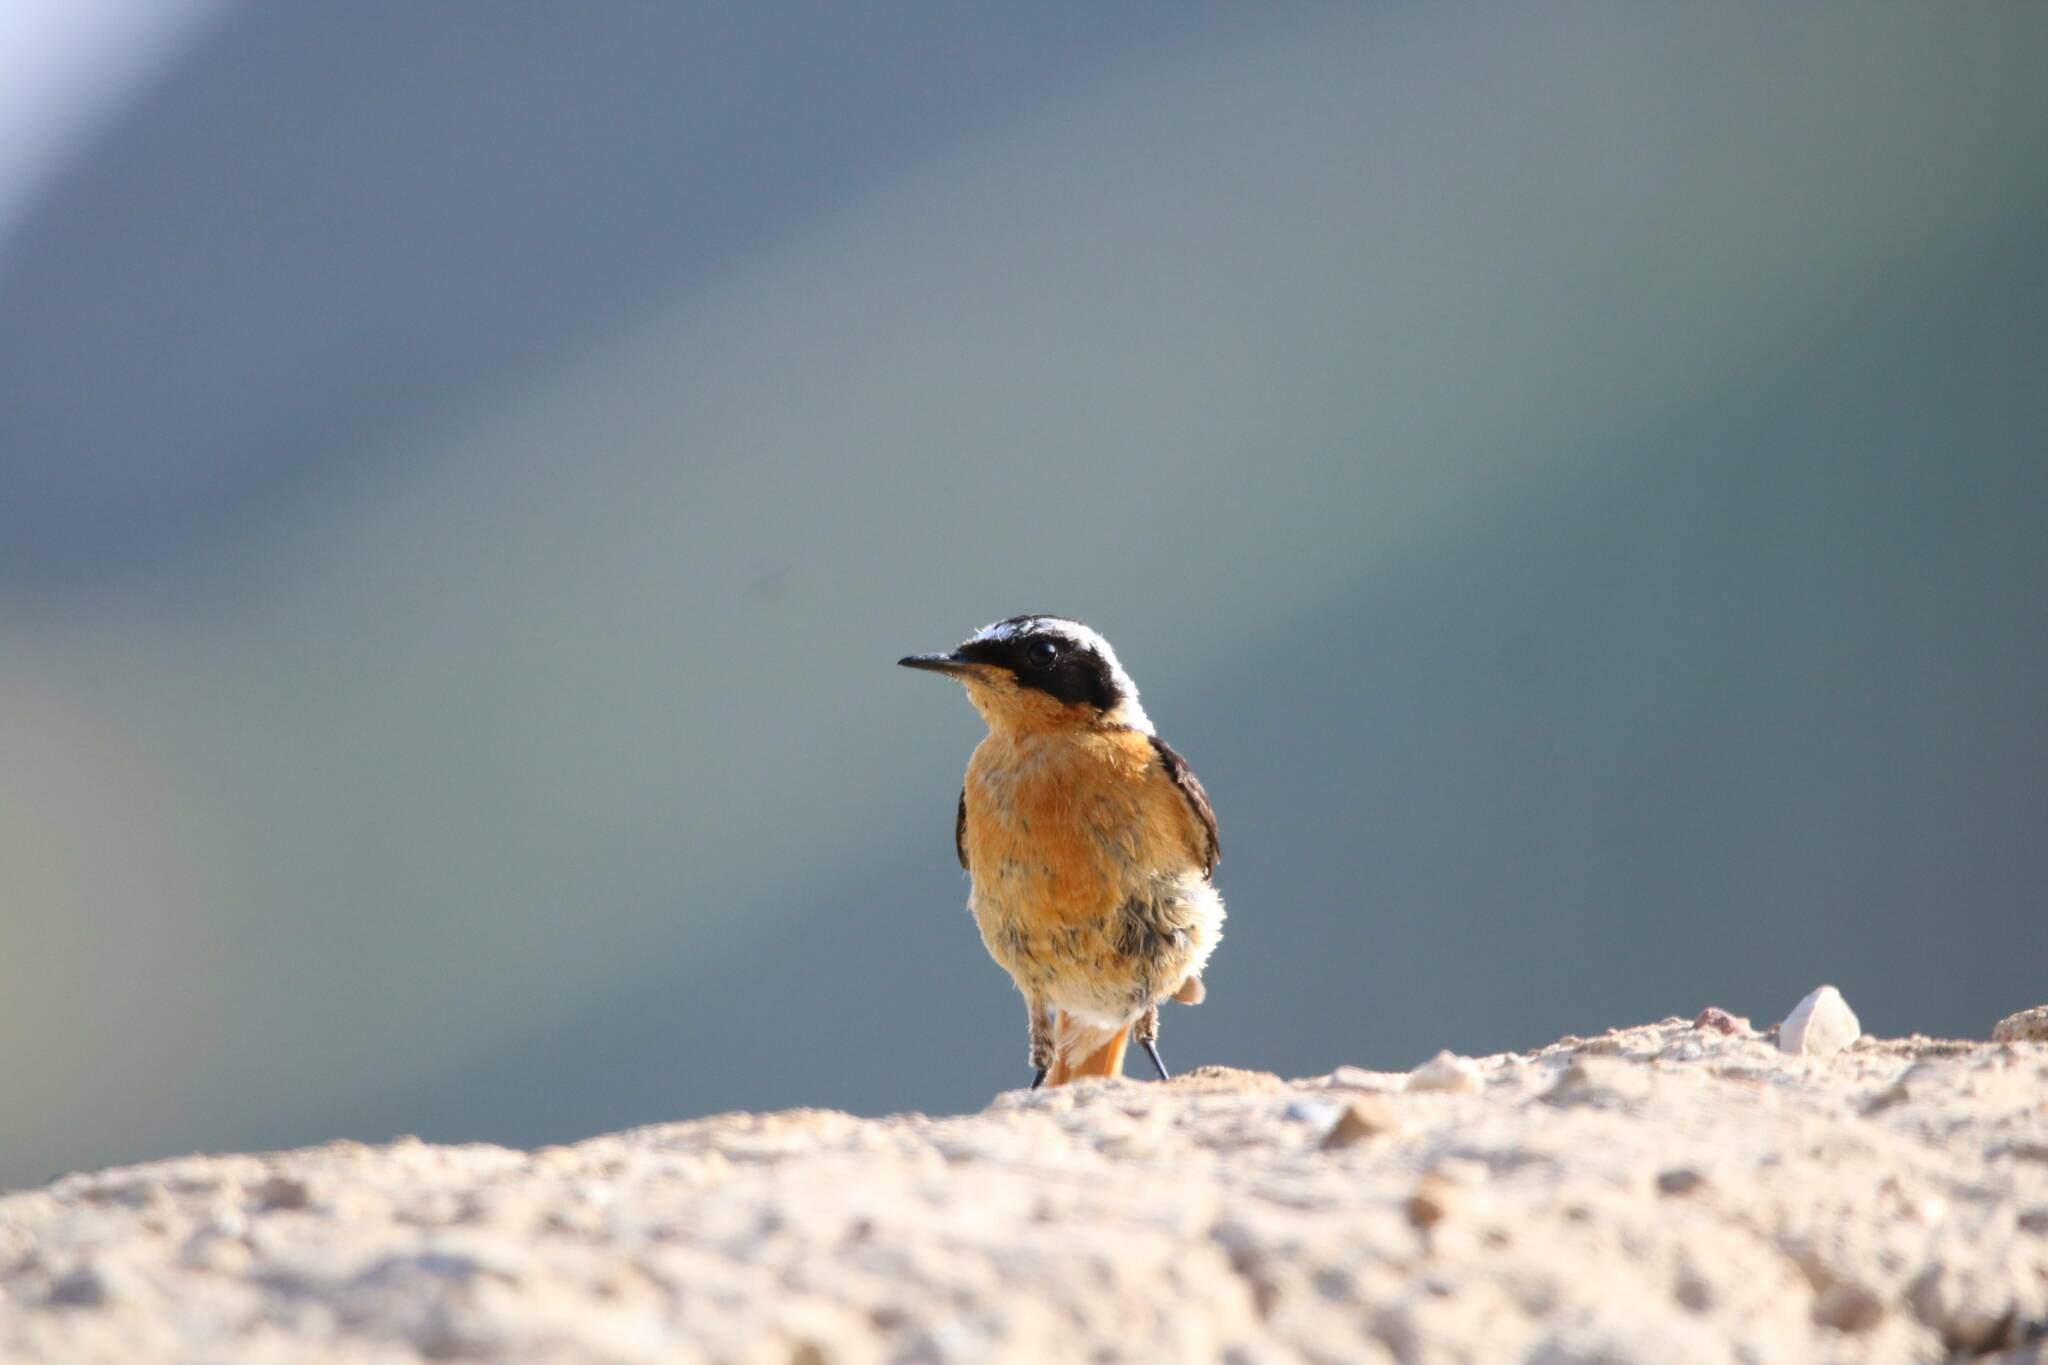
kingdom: Animalia
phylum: Chordata
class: Aves
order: Passeriformes
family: Muscicapidae
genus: Phoenicurus
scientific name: Phoenicurus moussieri
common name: Moussier's redstart
